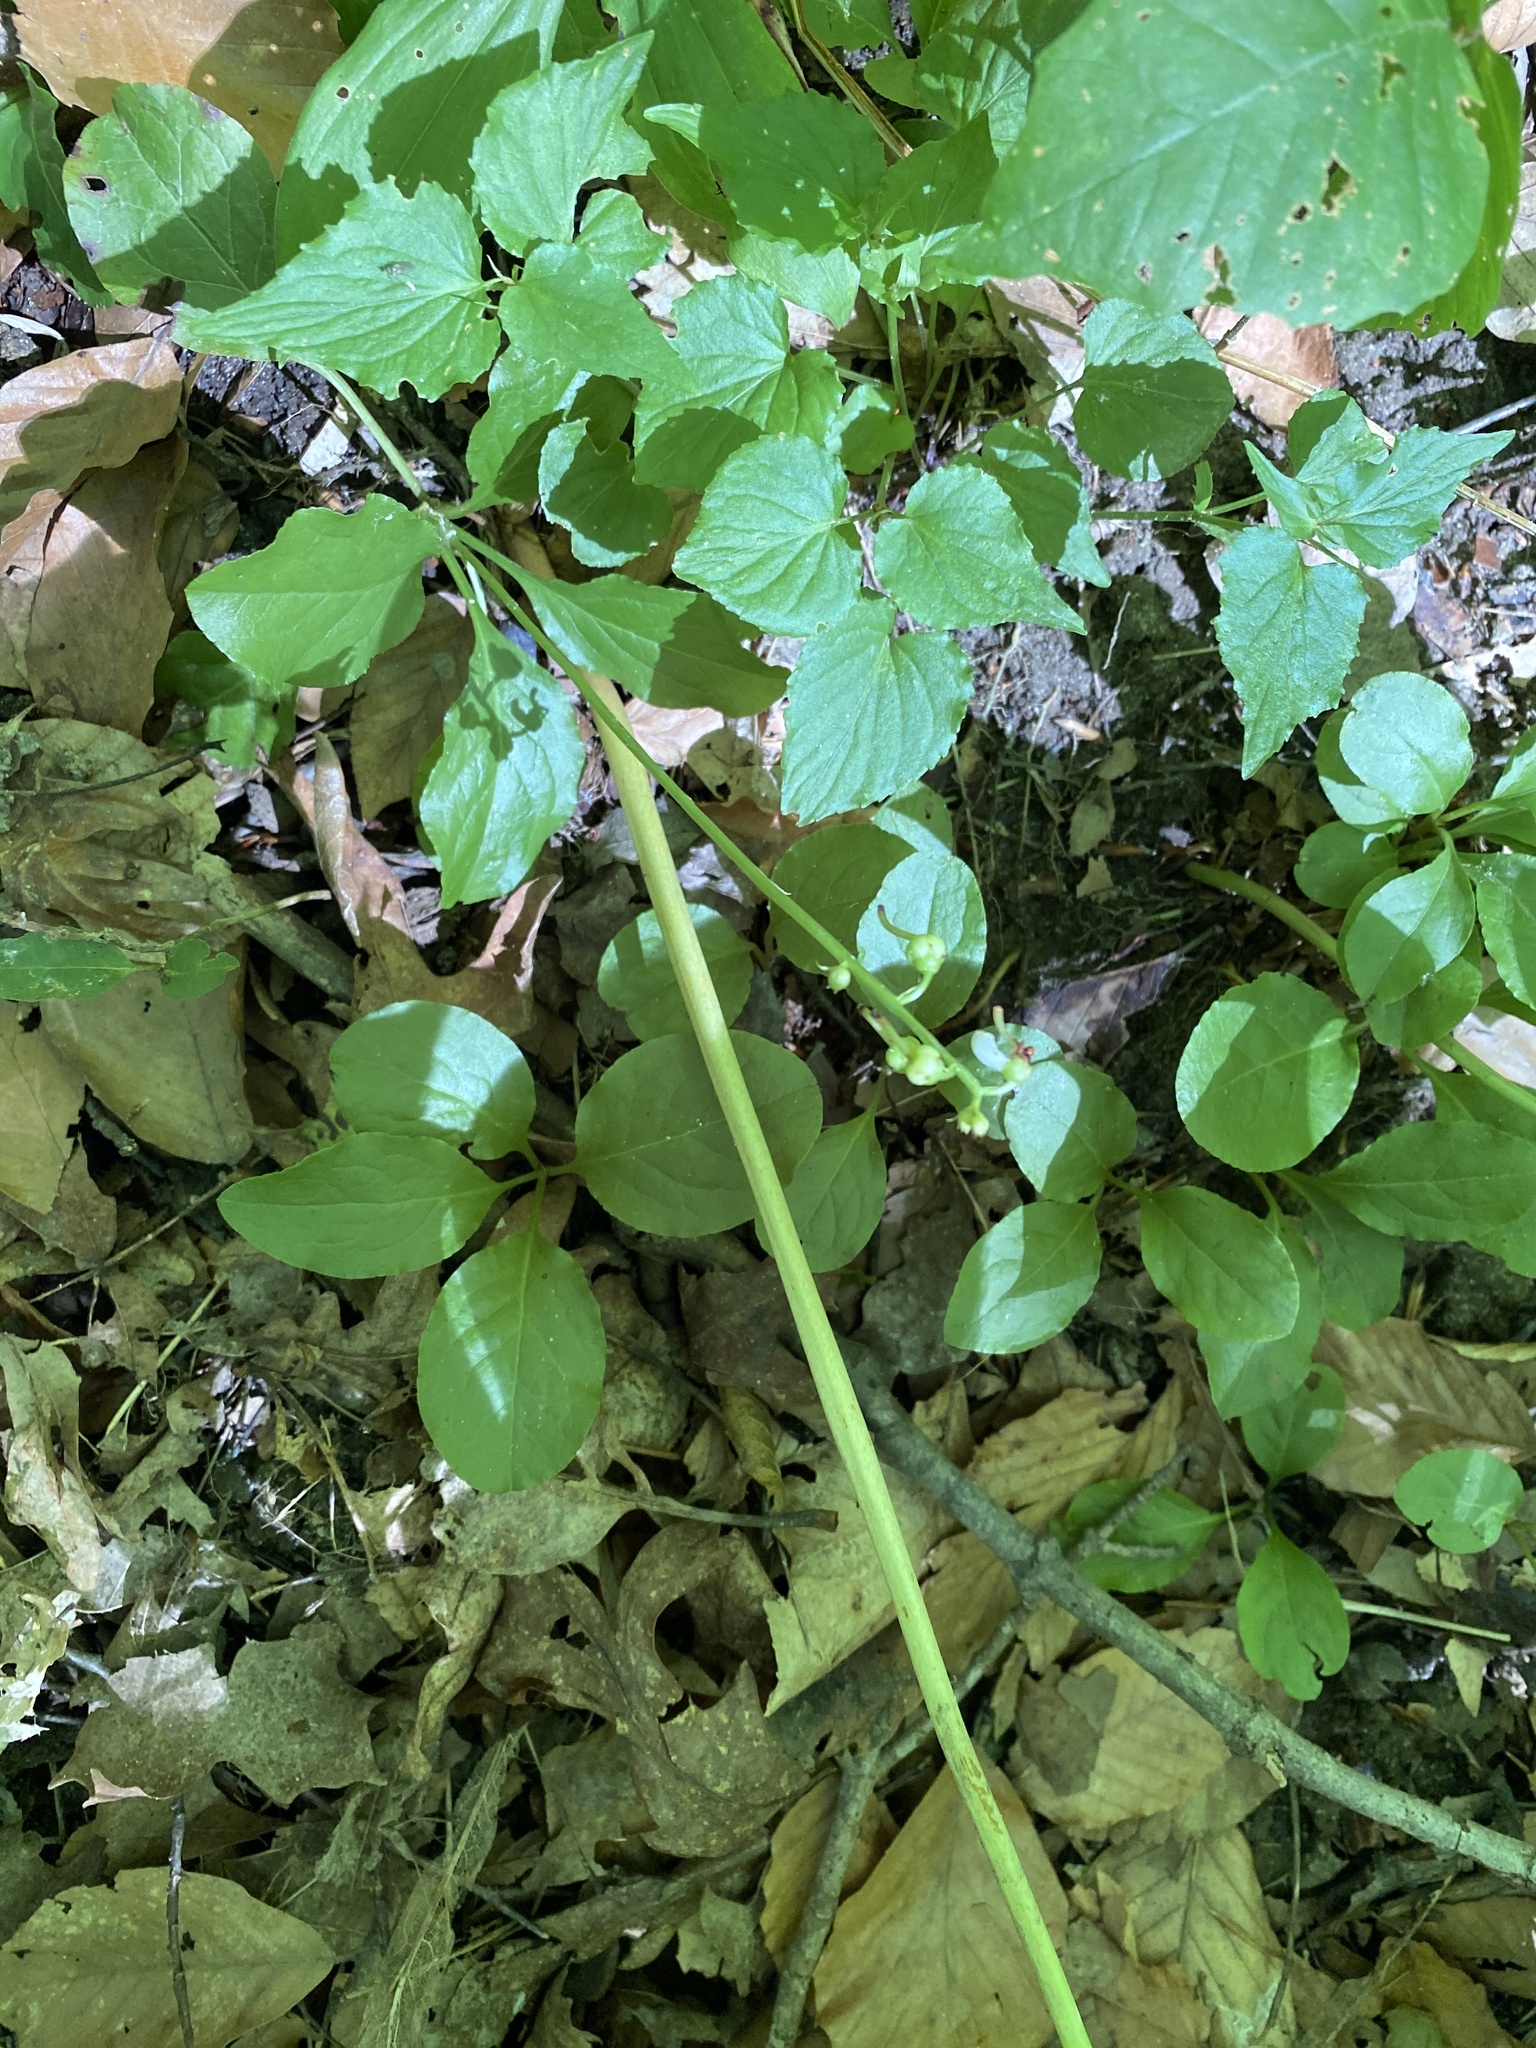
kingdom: Plantae
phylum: Tracheophyta
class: Magnoliopsida
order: Ericales
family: Ericaceae
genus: Pyrola
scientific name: Pyrola elliptica
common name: Shinleaf
